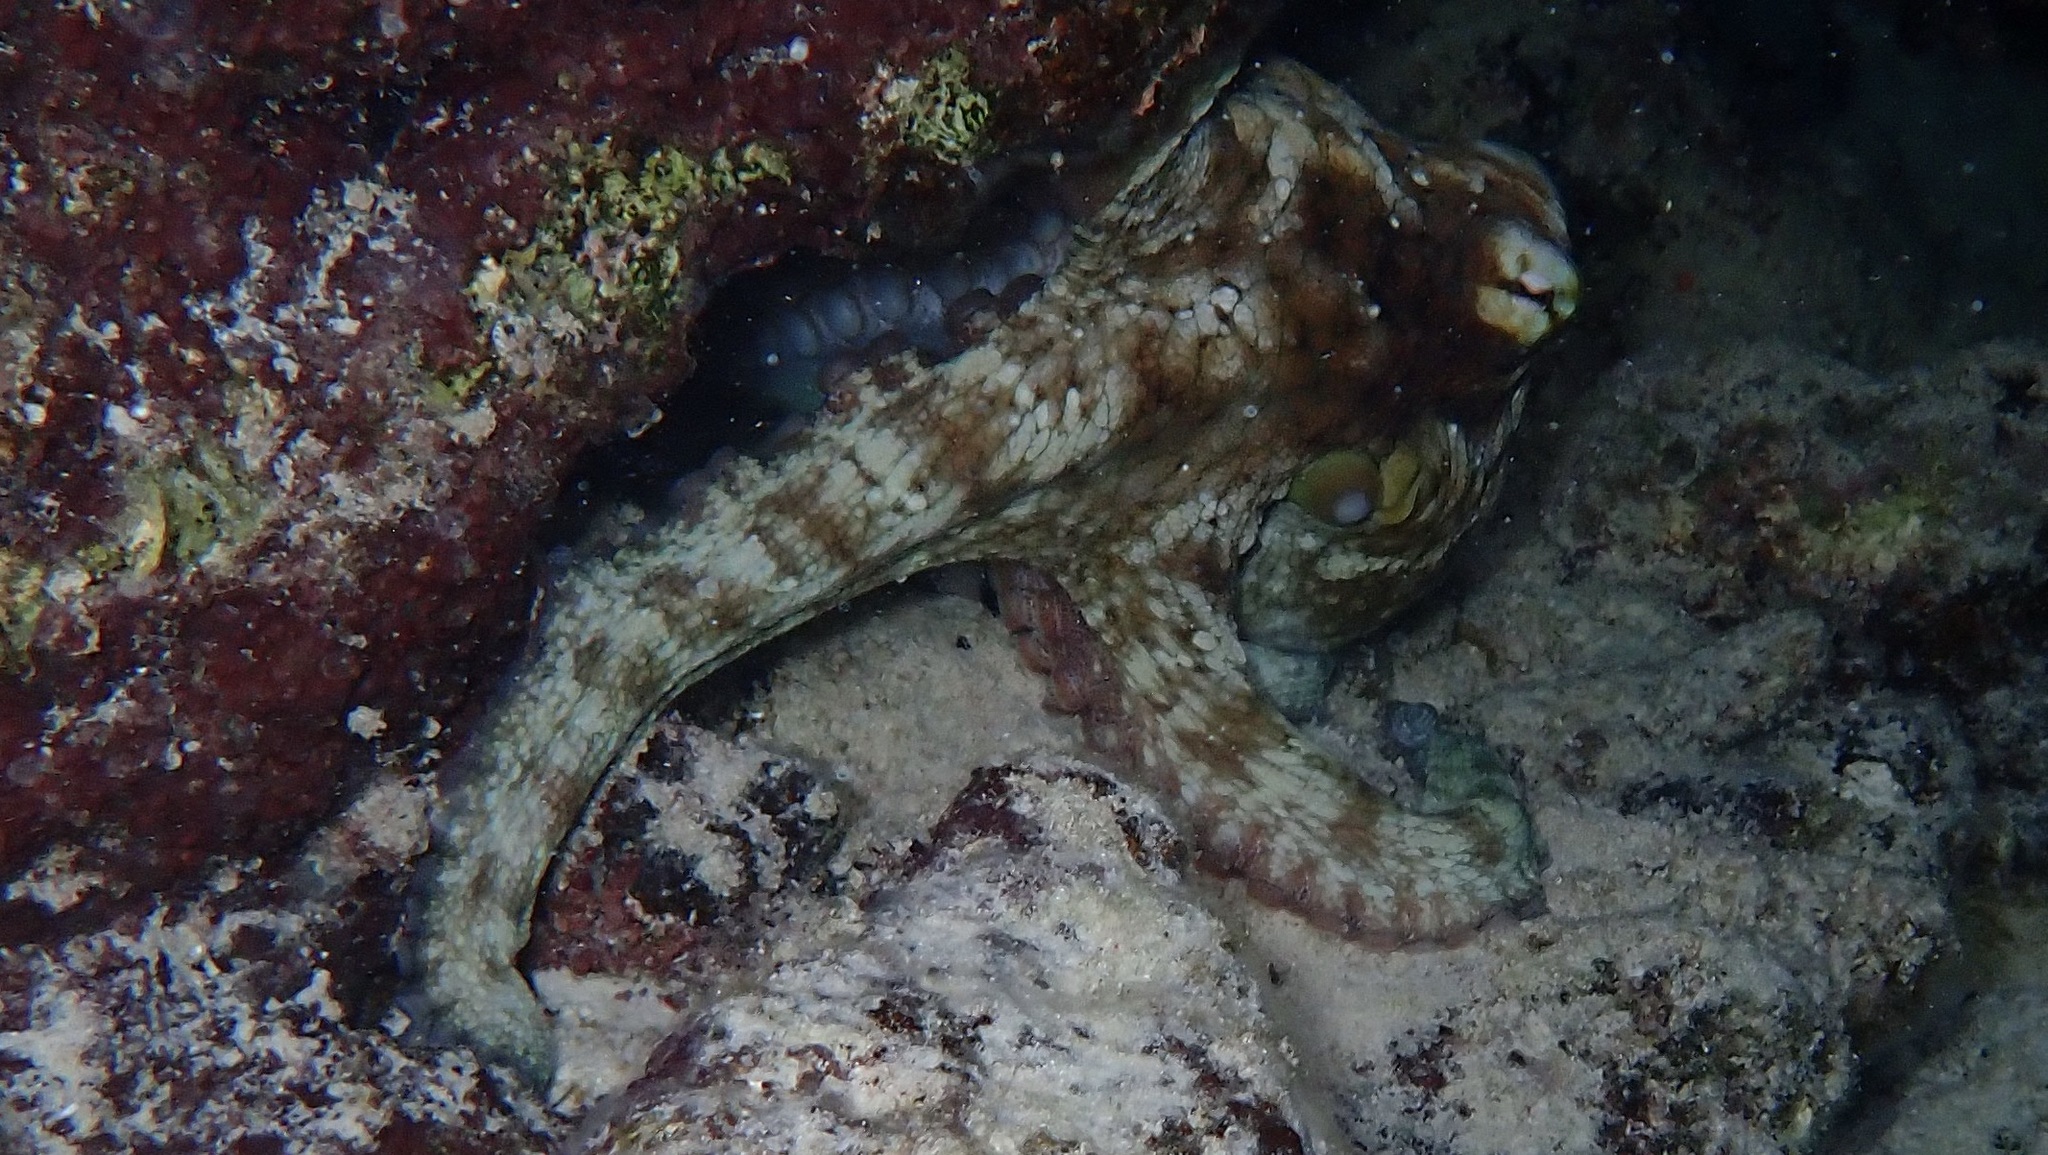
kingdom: Animalia
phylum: Mollusca
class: Cephalopoda
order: Octopoda
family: Octopodidae
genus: Octopus
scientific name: Octopus insularis
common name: Brazil reef octopus
